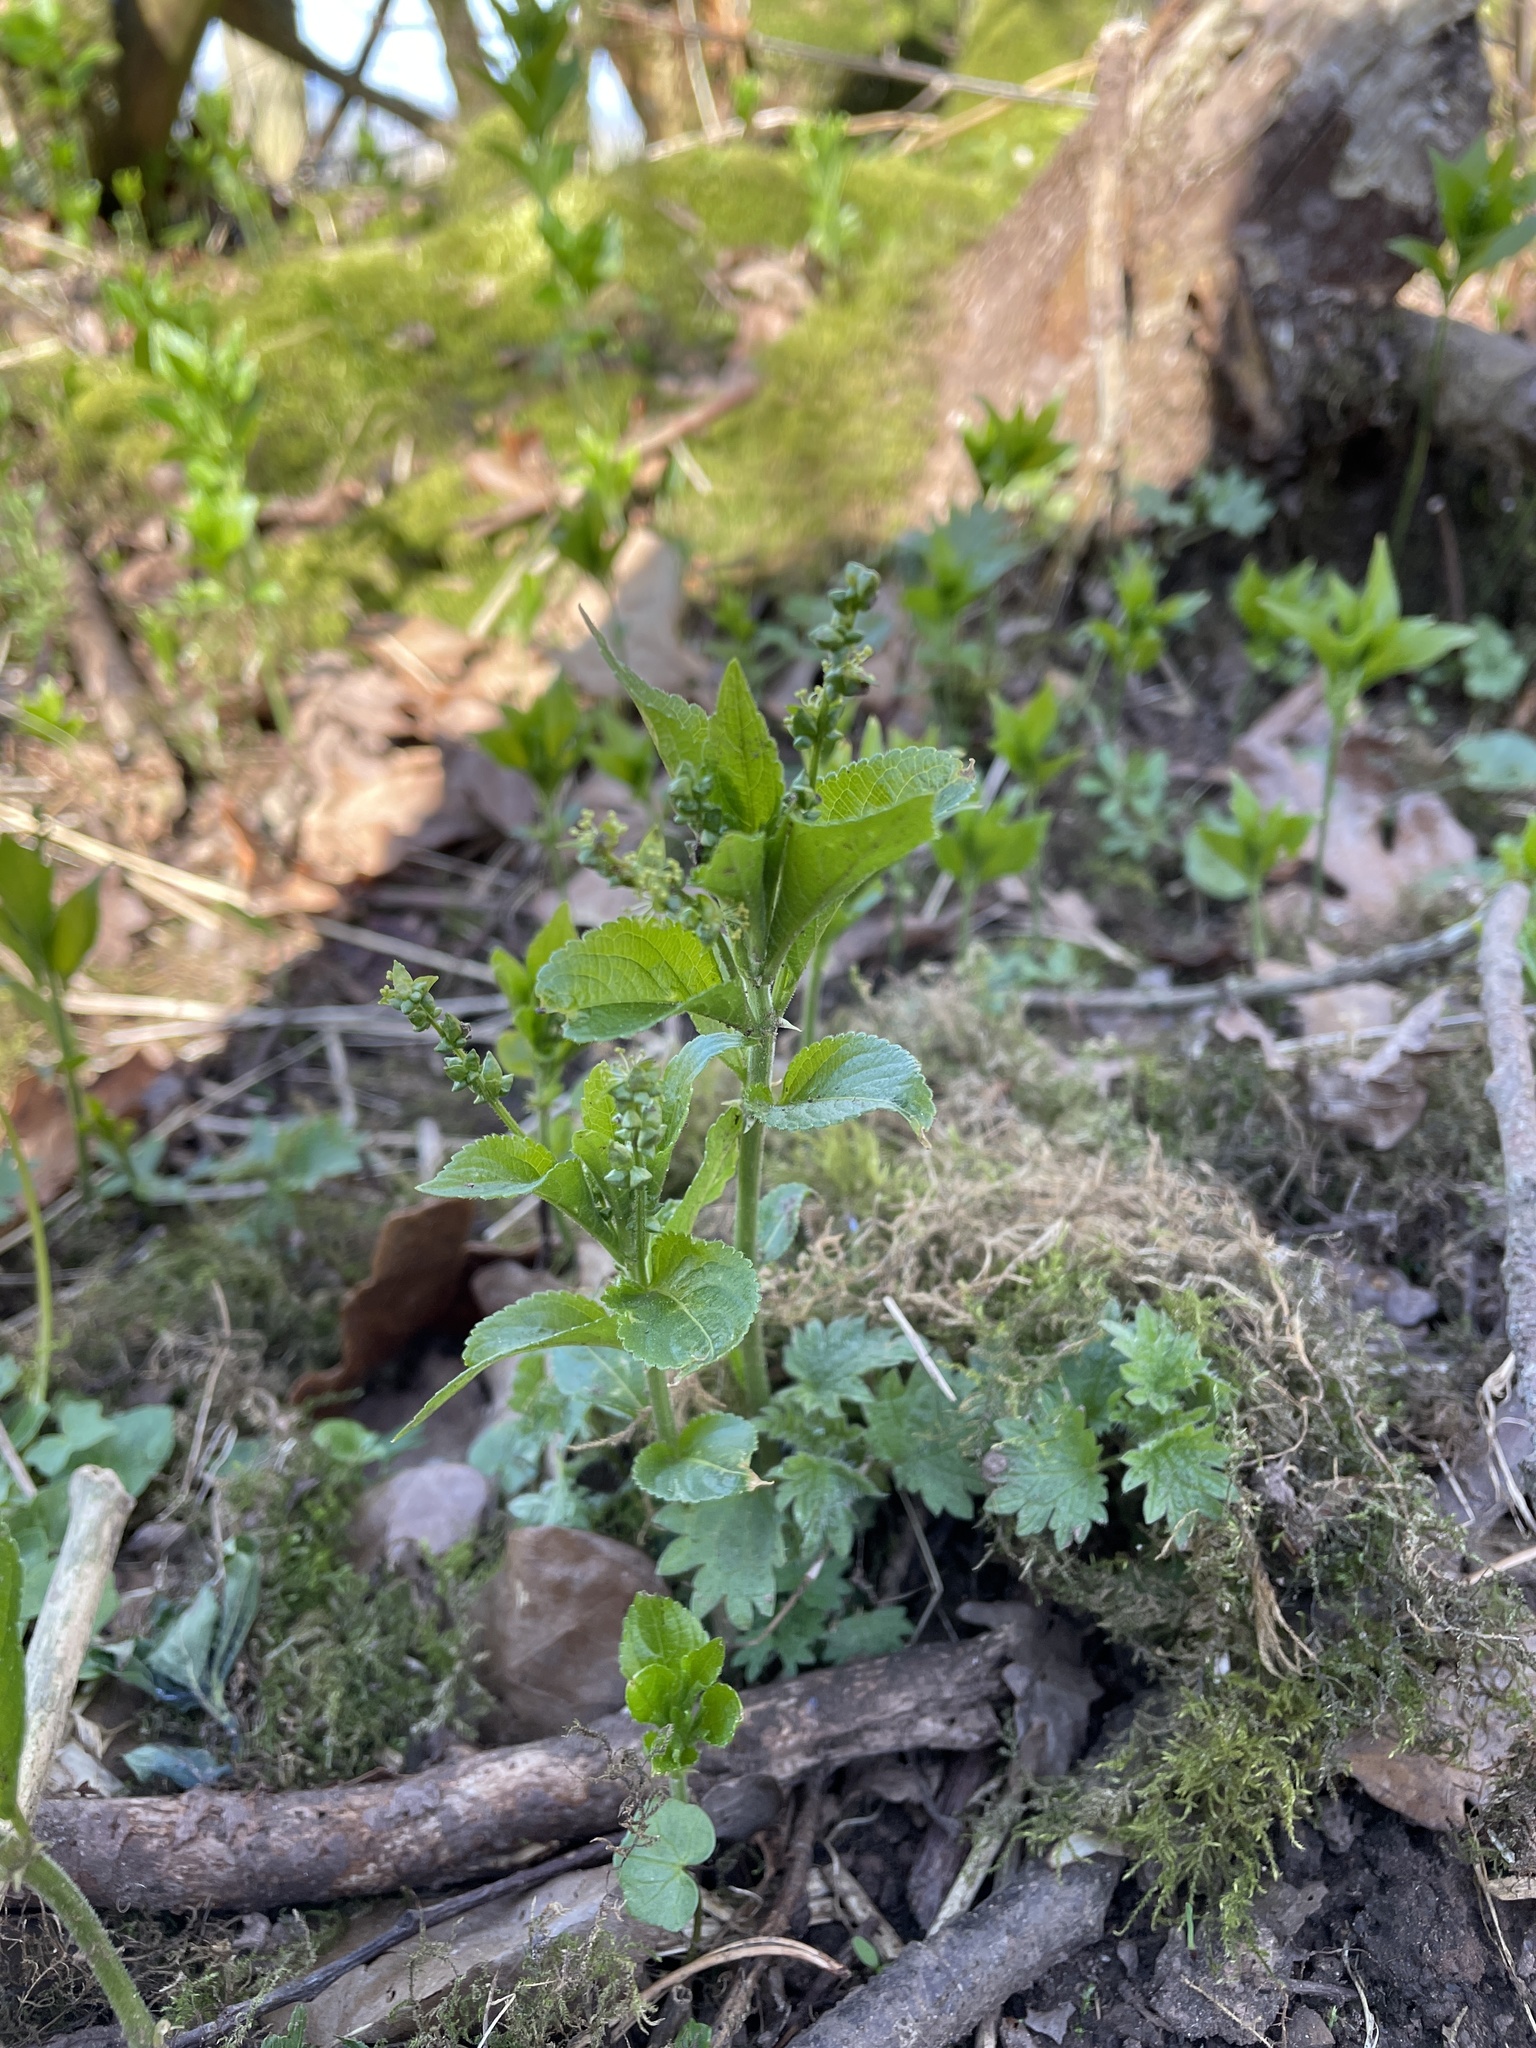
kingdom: Plantae
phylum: Tracheophyta
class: Magnoliopsida
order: Malpighiales
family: Euphorbiaceae
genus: Mercurialis
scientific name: Mercurialis perennis
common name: Dog mercury
